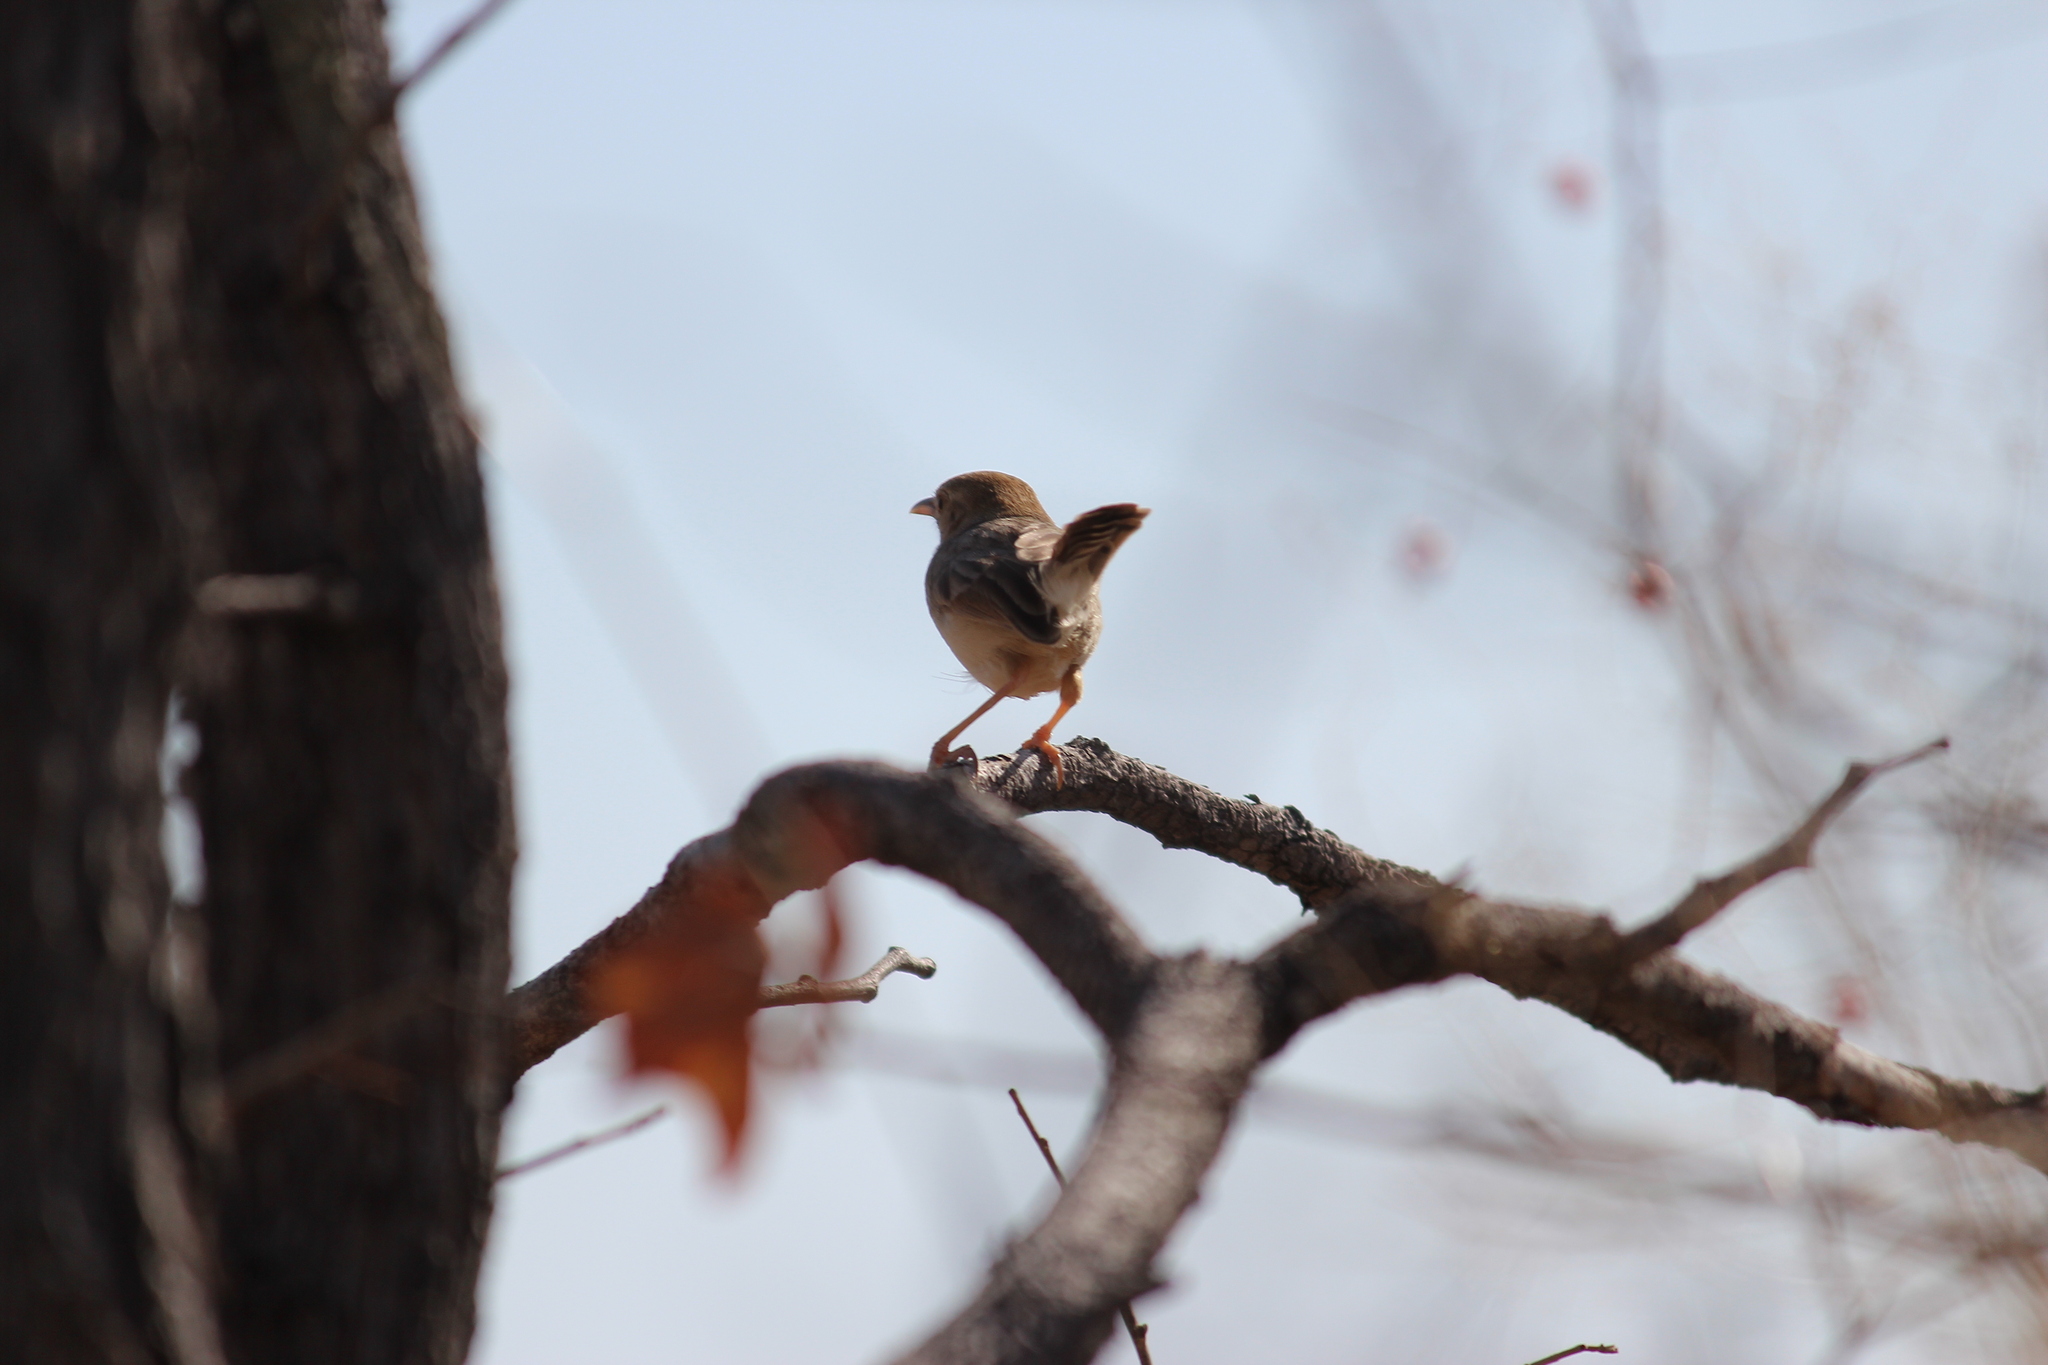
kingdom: Animalia
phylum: Chordata
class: Aves
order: Passeriformes
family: Cisticolidae
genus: Cisticola
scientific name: Cisticola fulvicapilla
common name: Neddicky
